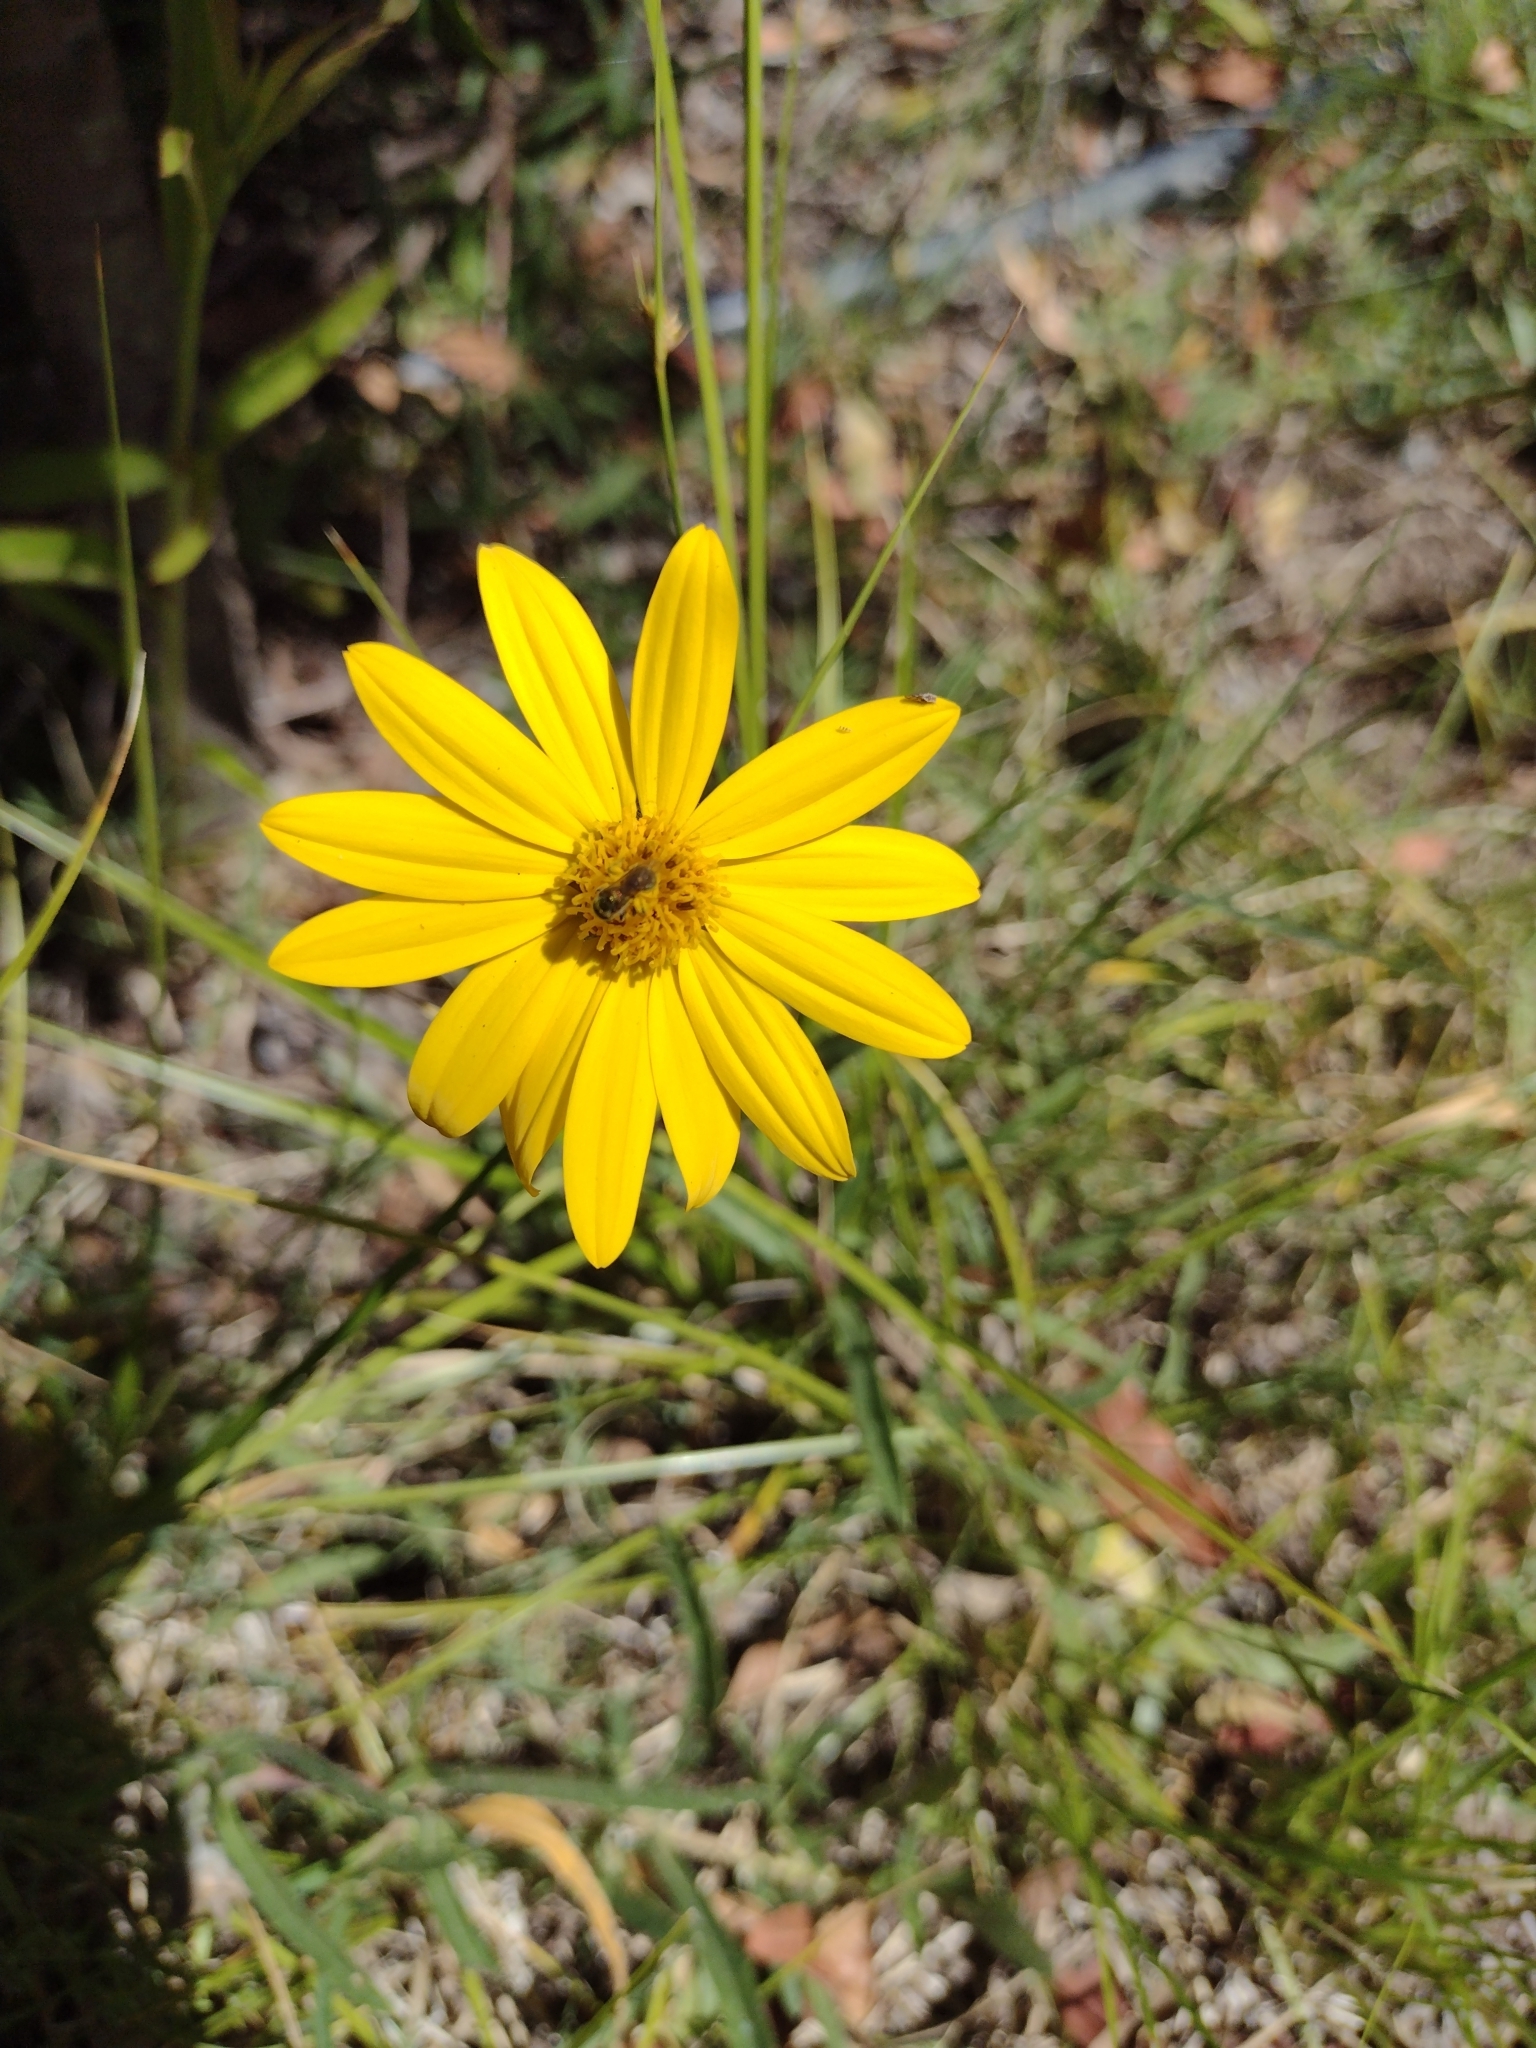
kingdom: Plantae
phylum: Tracheophyta
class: Magnoliopsida
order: Asterales
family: Asteraceae
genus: Wedelia
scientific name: Wedelia montevidensis
